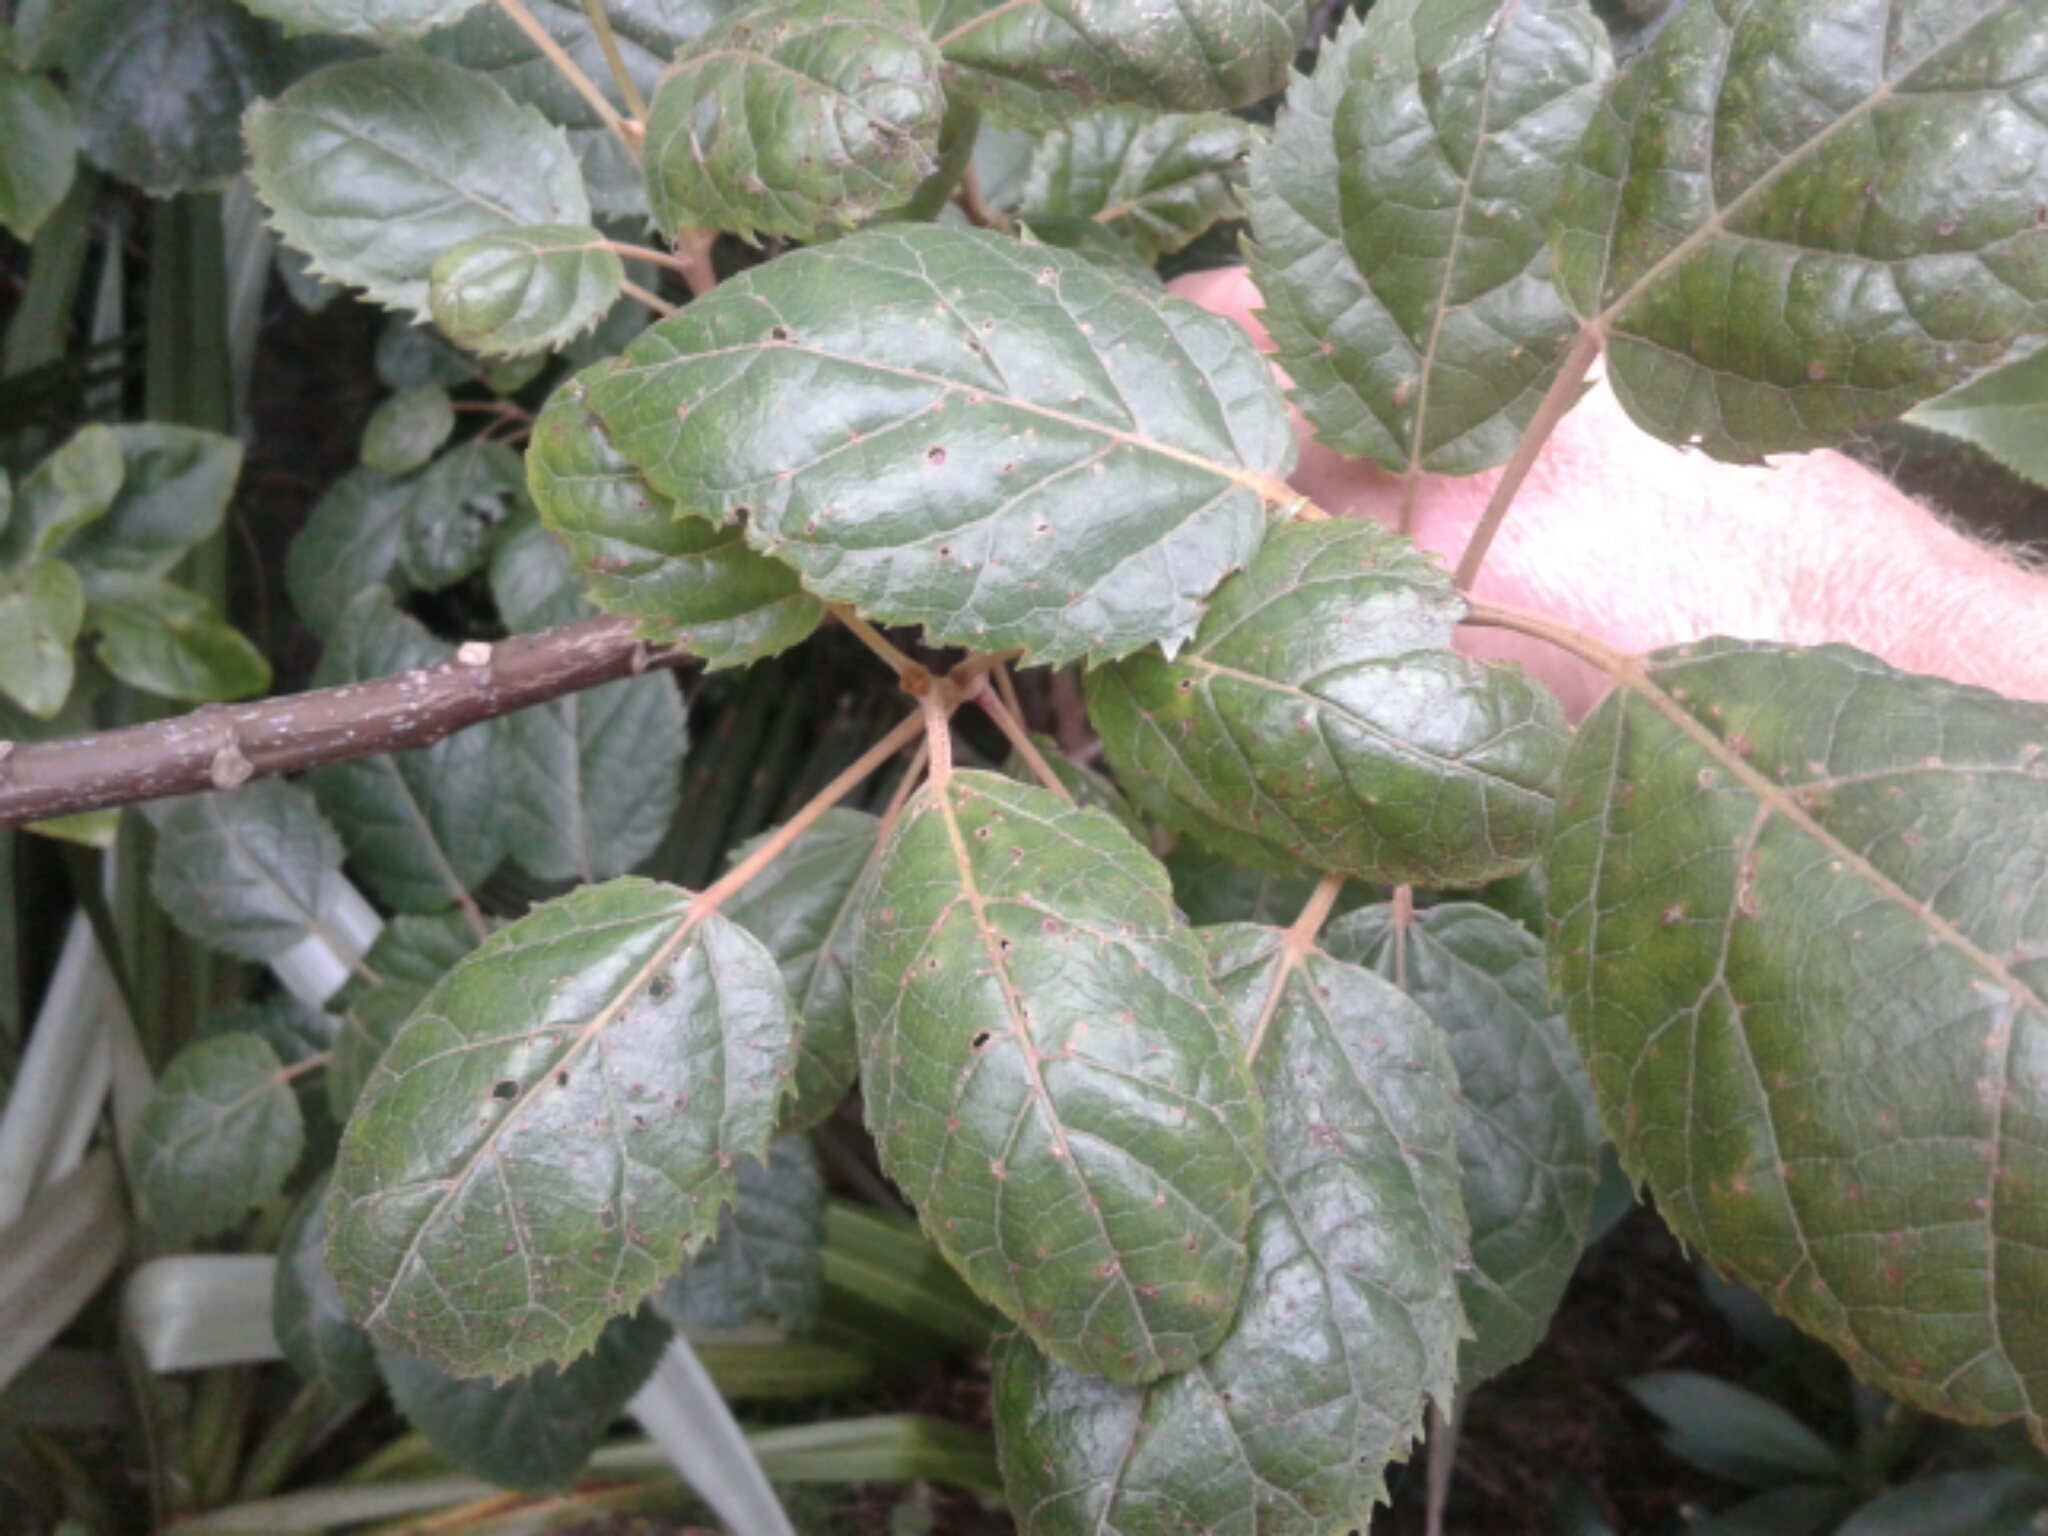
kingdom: Plantae
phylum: Tracheophyta
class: Magnoliopsida
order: Oxalidales
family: Elaeocarpaceae
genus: Aristotelia
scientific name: Aristotelia serrata
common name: New zealand wineberry
